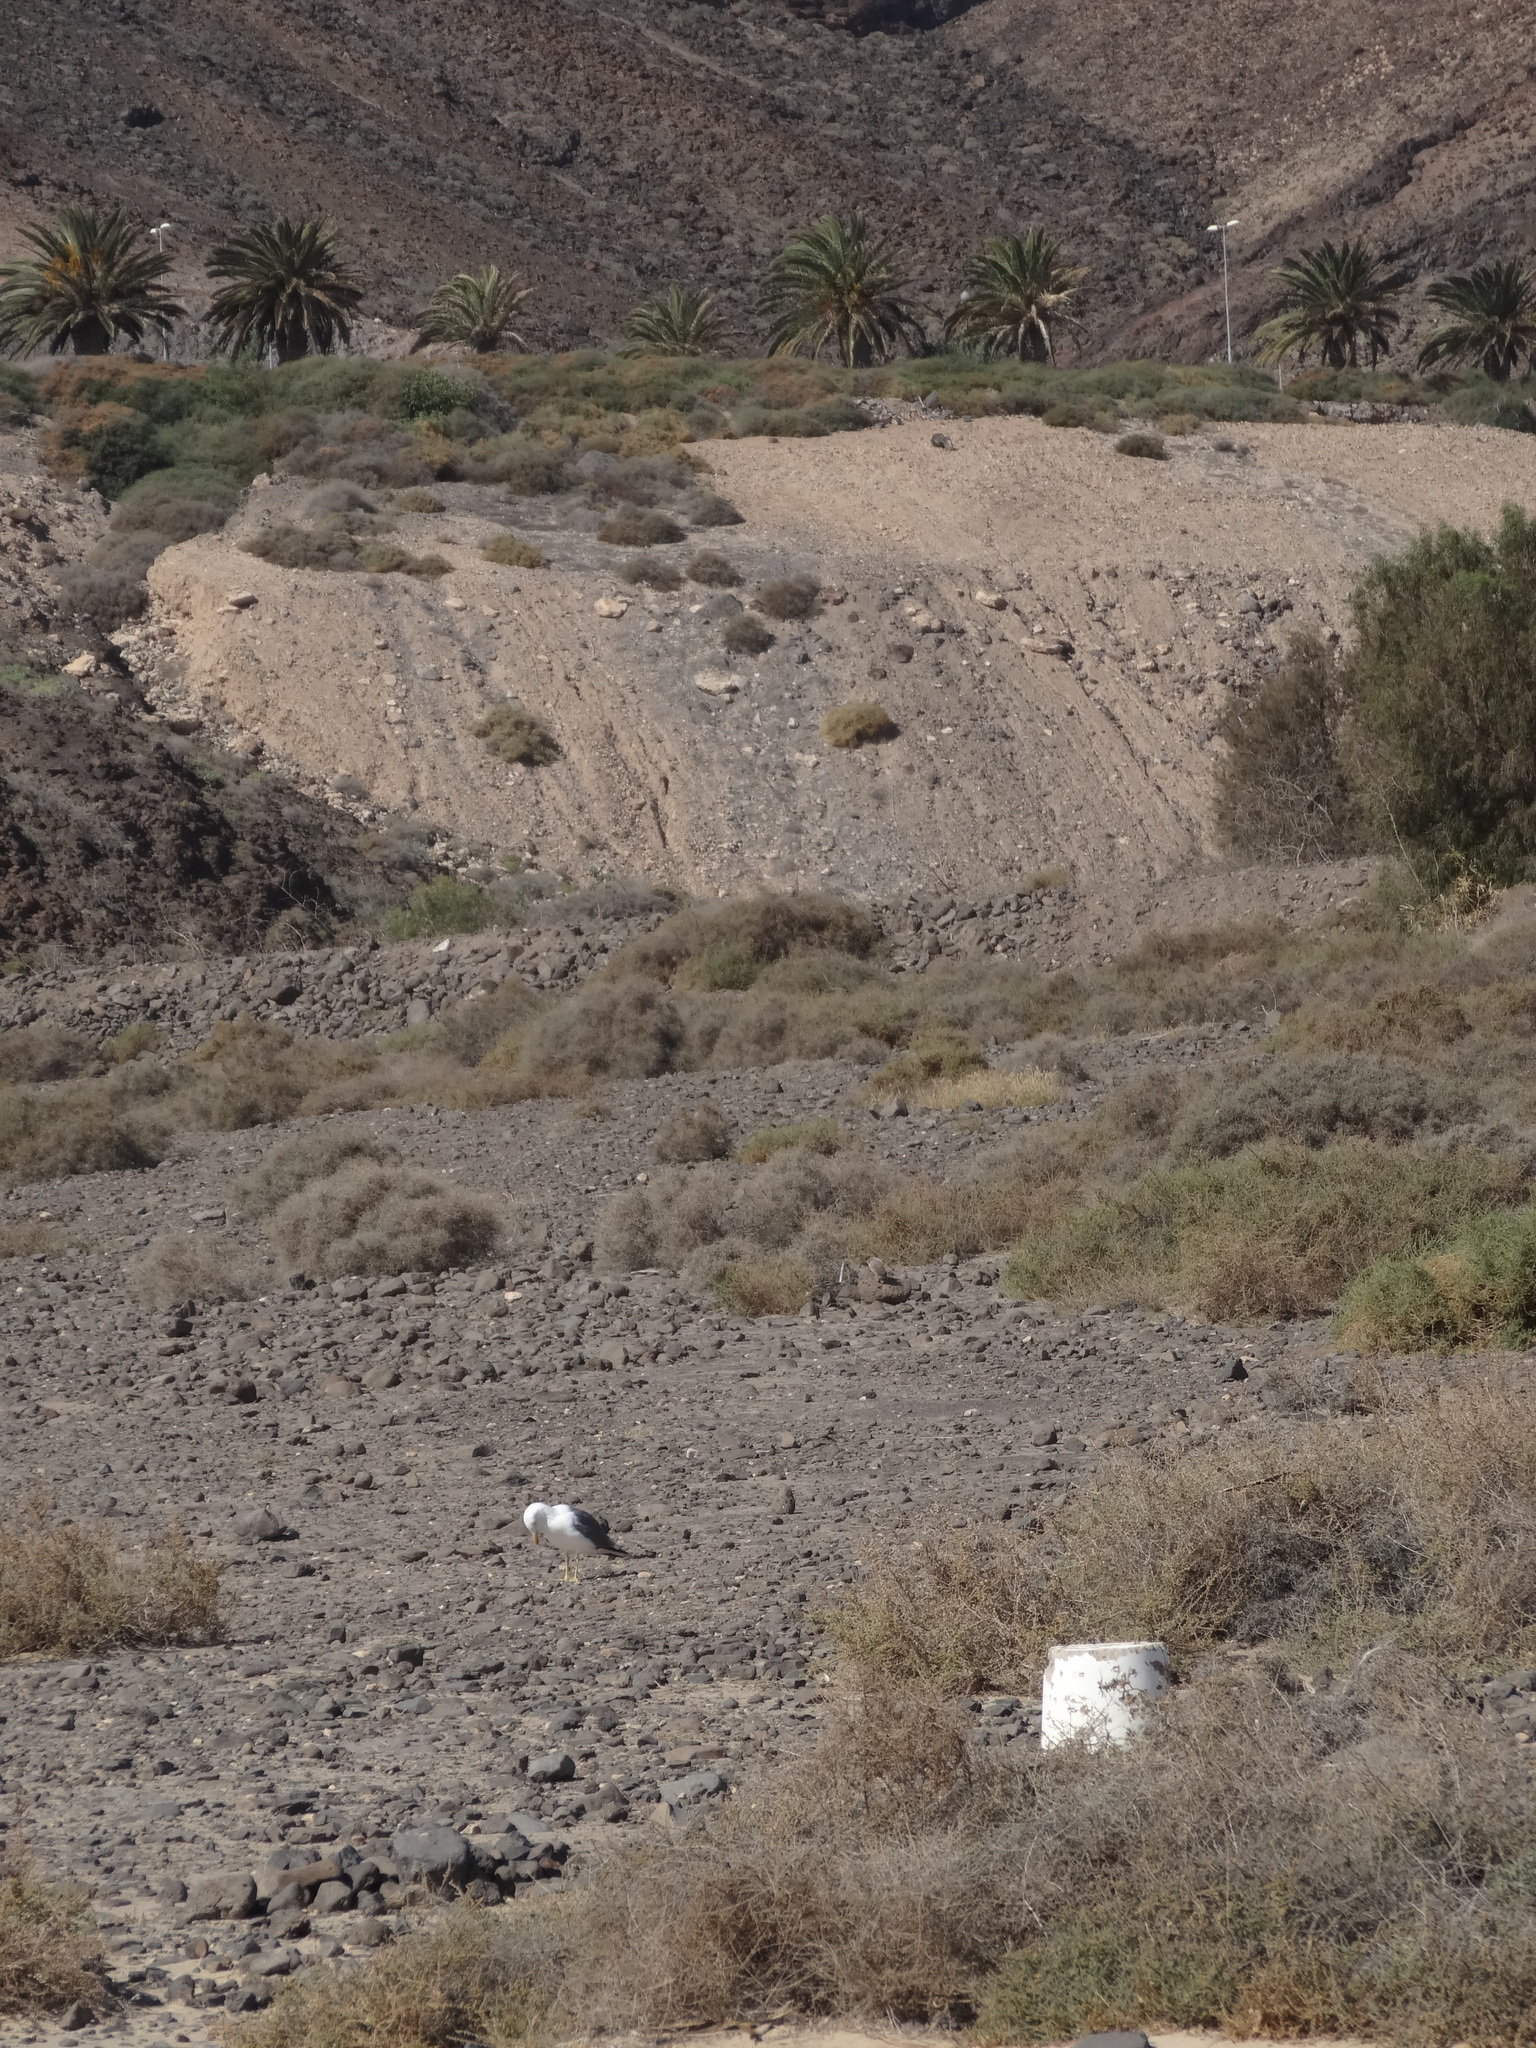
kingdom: Animalia
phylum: Chordata
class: Aves
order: Charadriiformes
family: Laridae
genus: Larus
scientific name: Larus fuscus
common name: Lesser black-backed gull
